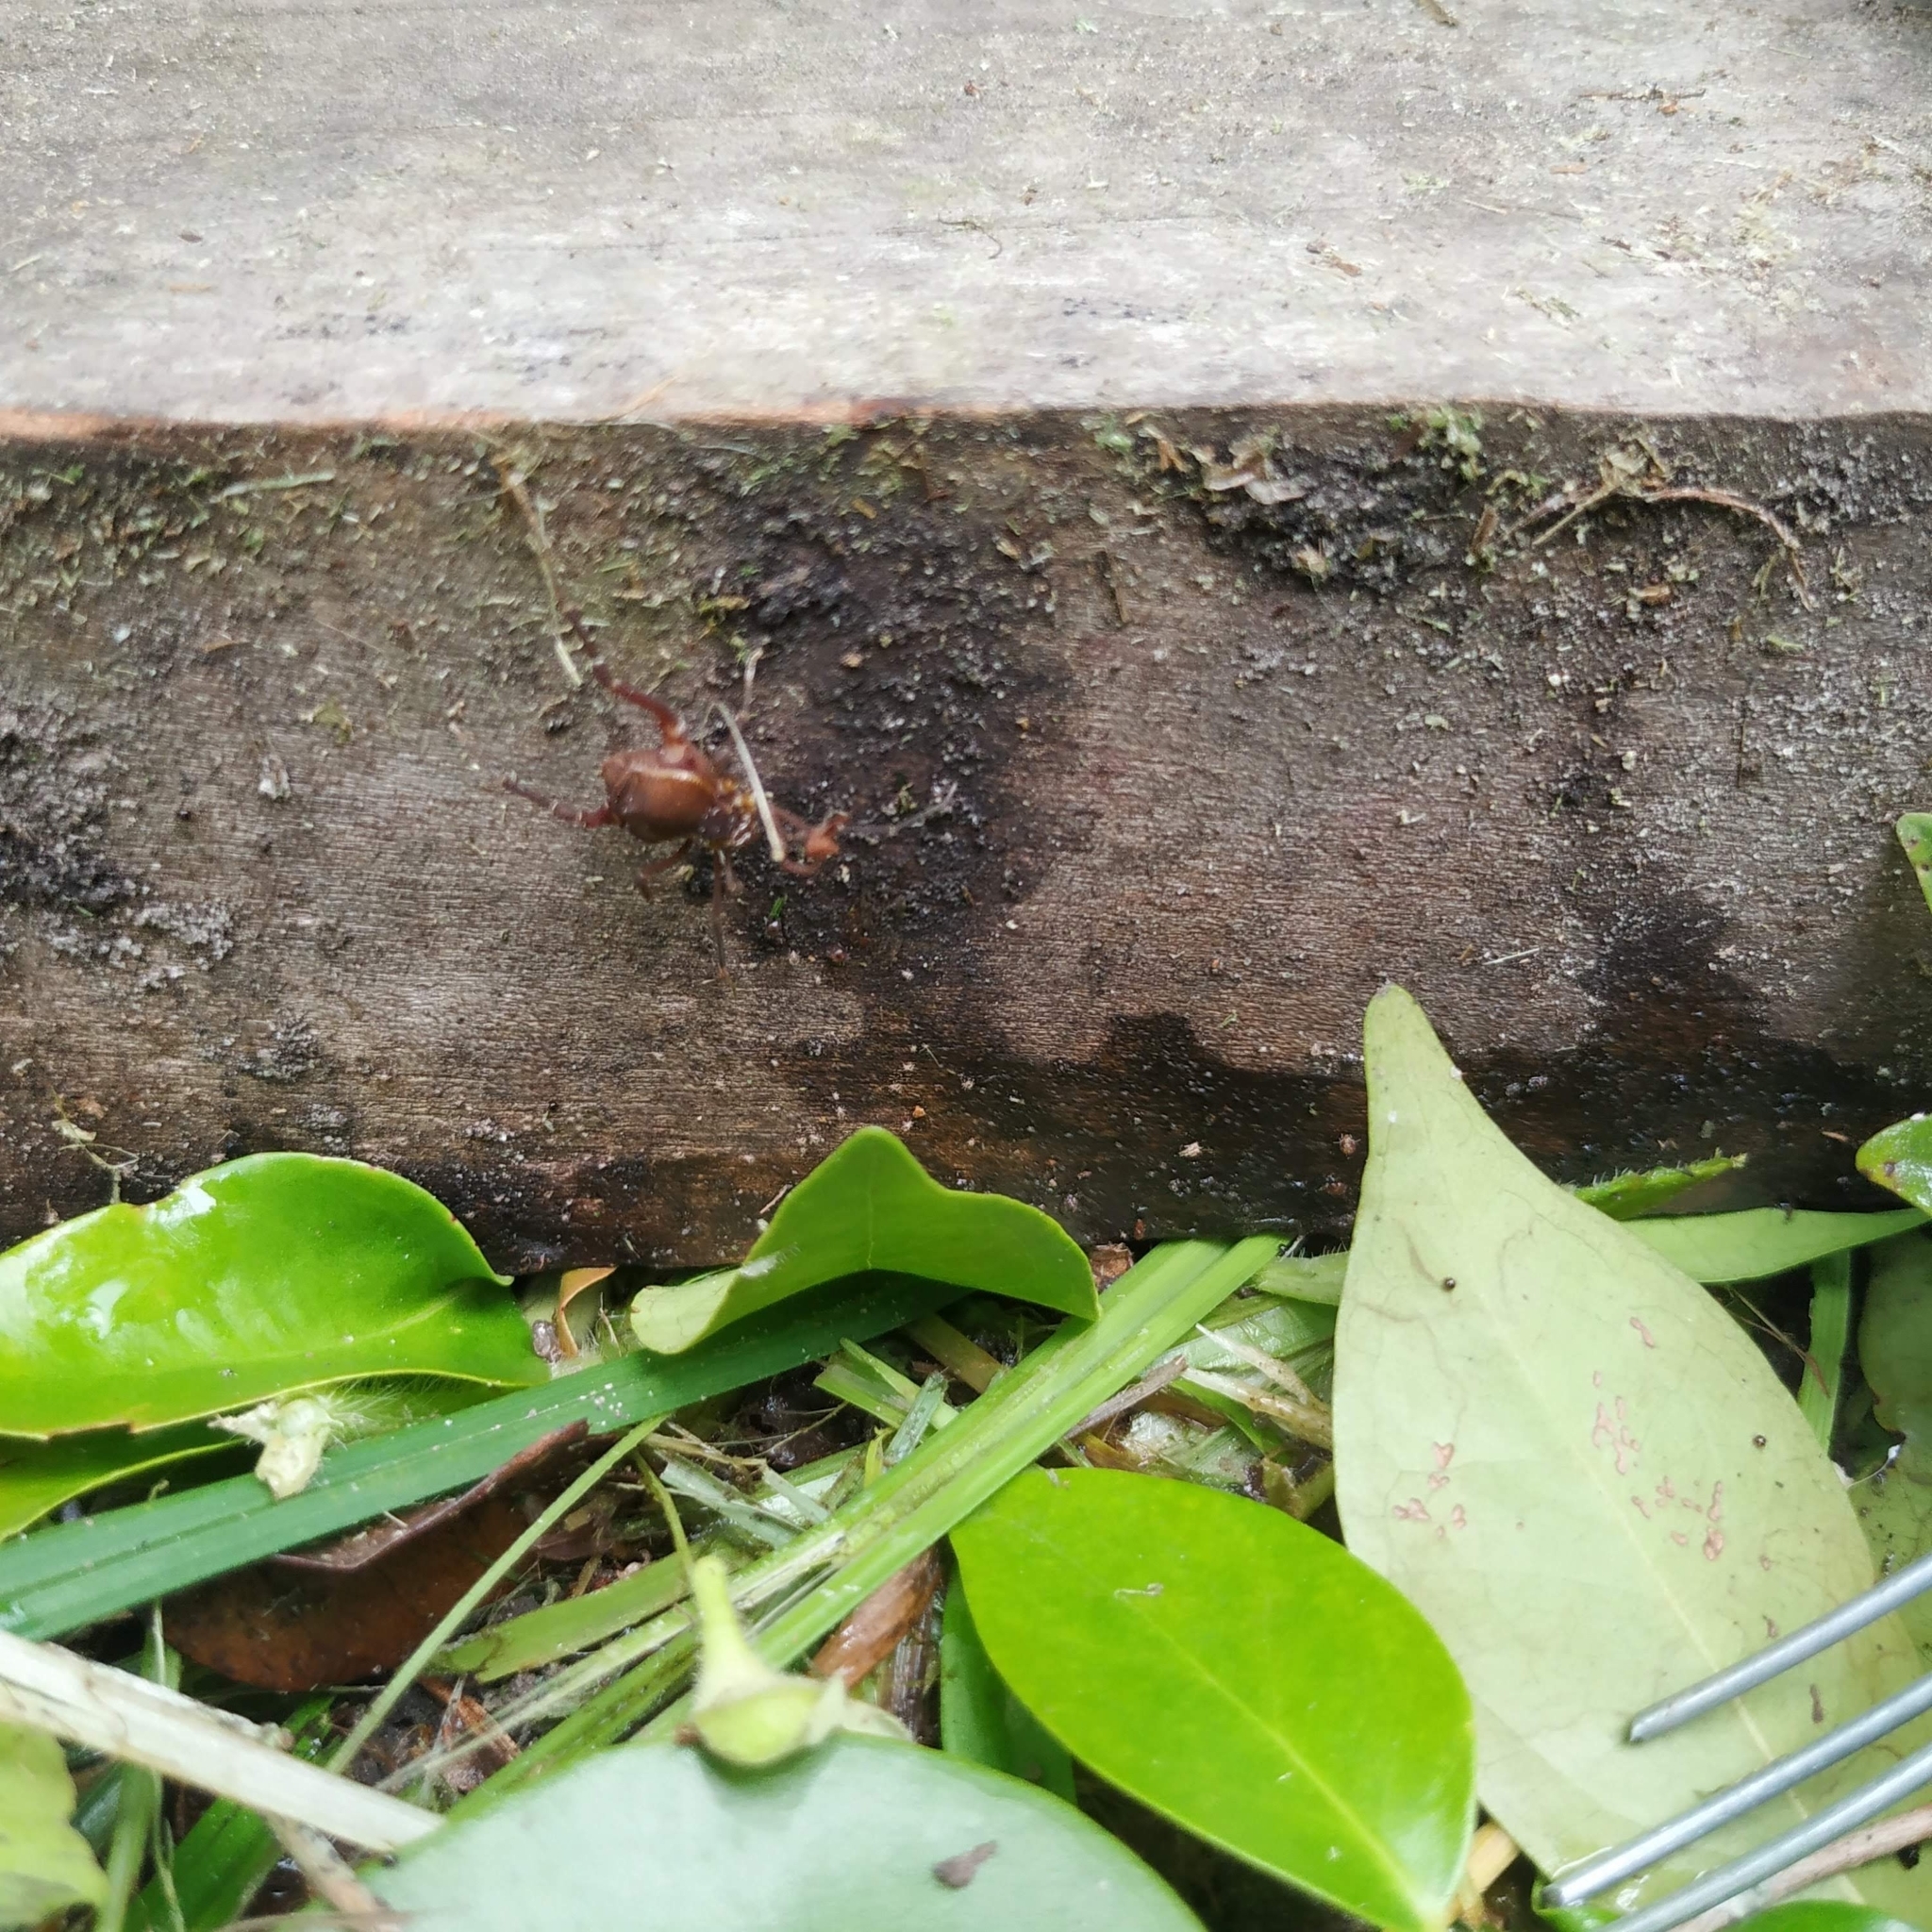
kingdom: Animalia
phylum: Arthropoda
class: Arachnida
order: Opiliones
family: Gonyleptidae
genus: Pseudopucrolia
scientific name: Pseudopucrolia discrepans
